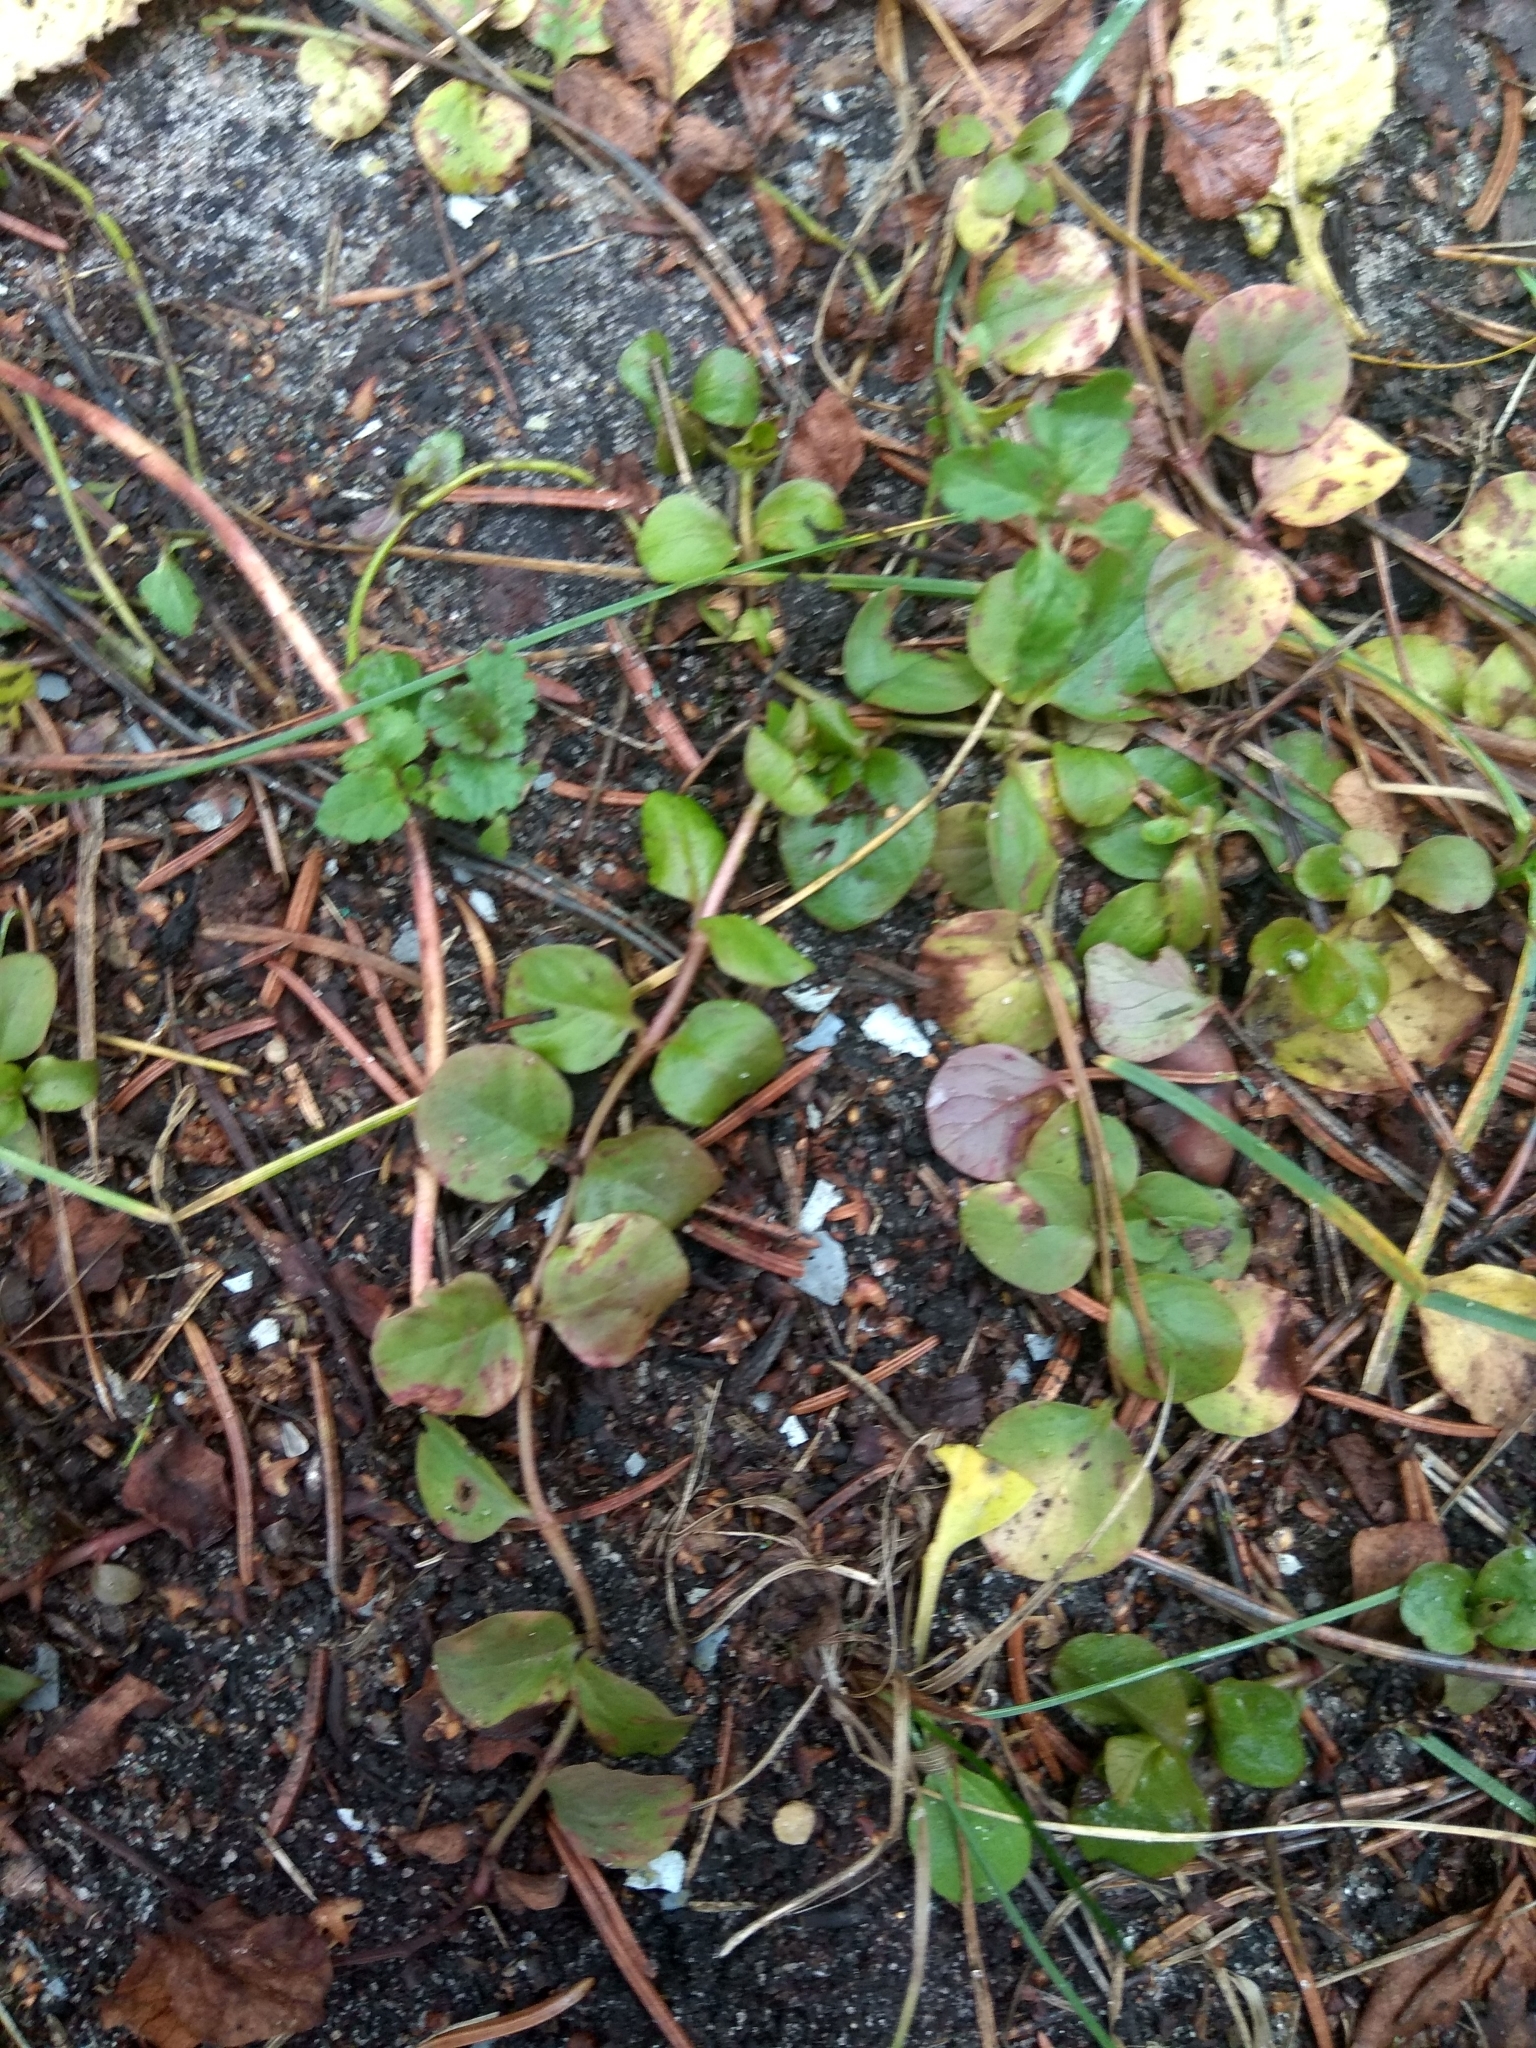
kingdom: Plantae
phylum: Tracheophyta
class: Magnoliopsida
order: Ericales
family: Primulaceae
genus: Lysimachia
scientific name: Lysimachia nummularia
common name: Moneywort
